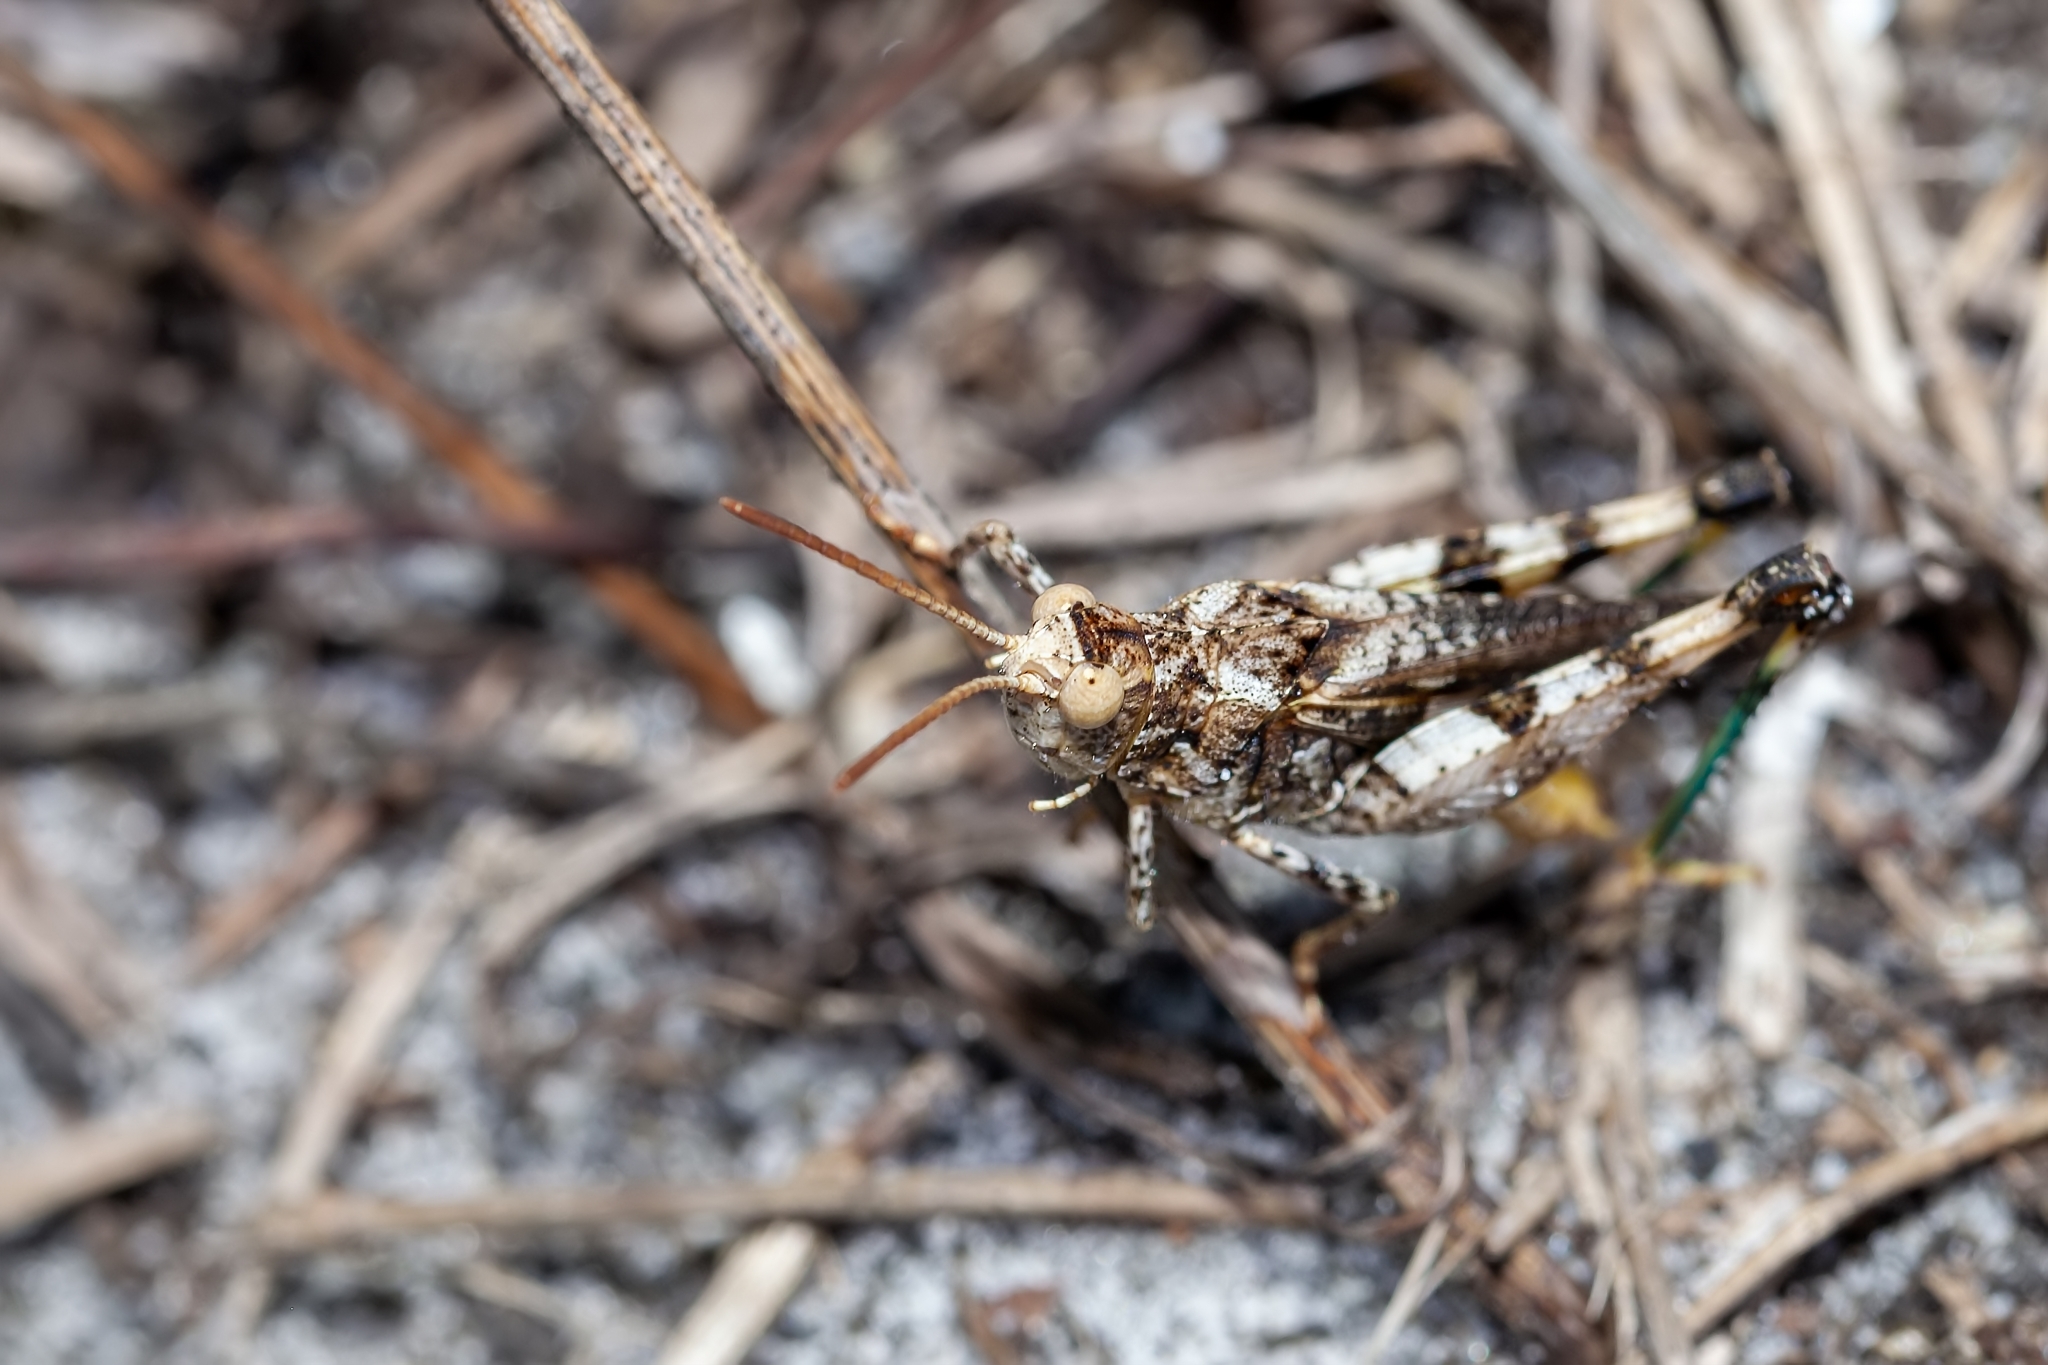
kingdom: Animalia
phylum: Arthropoda
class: Insecta
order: Orthoptera
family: Acrididae
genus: Chortophaga
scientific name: Chortophaga australior
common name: Southern green-striped grasshopper
